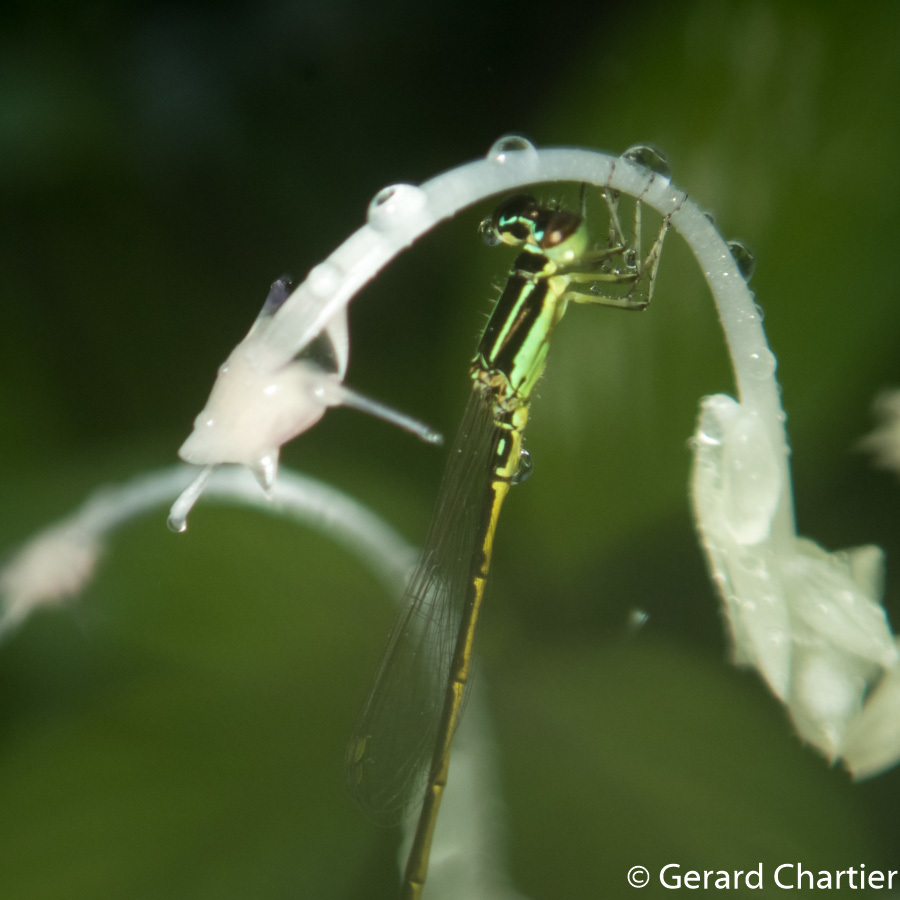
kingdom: Animalia
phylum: Arthropoda
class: Insecta
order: Odonata
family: Coenagrionidae
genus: Agriocnemis
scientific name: Agriocnemis minima
